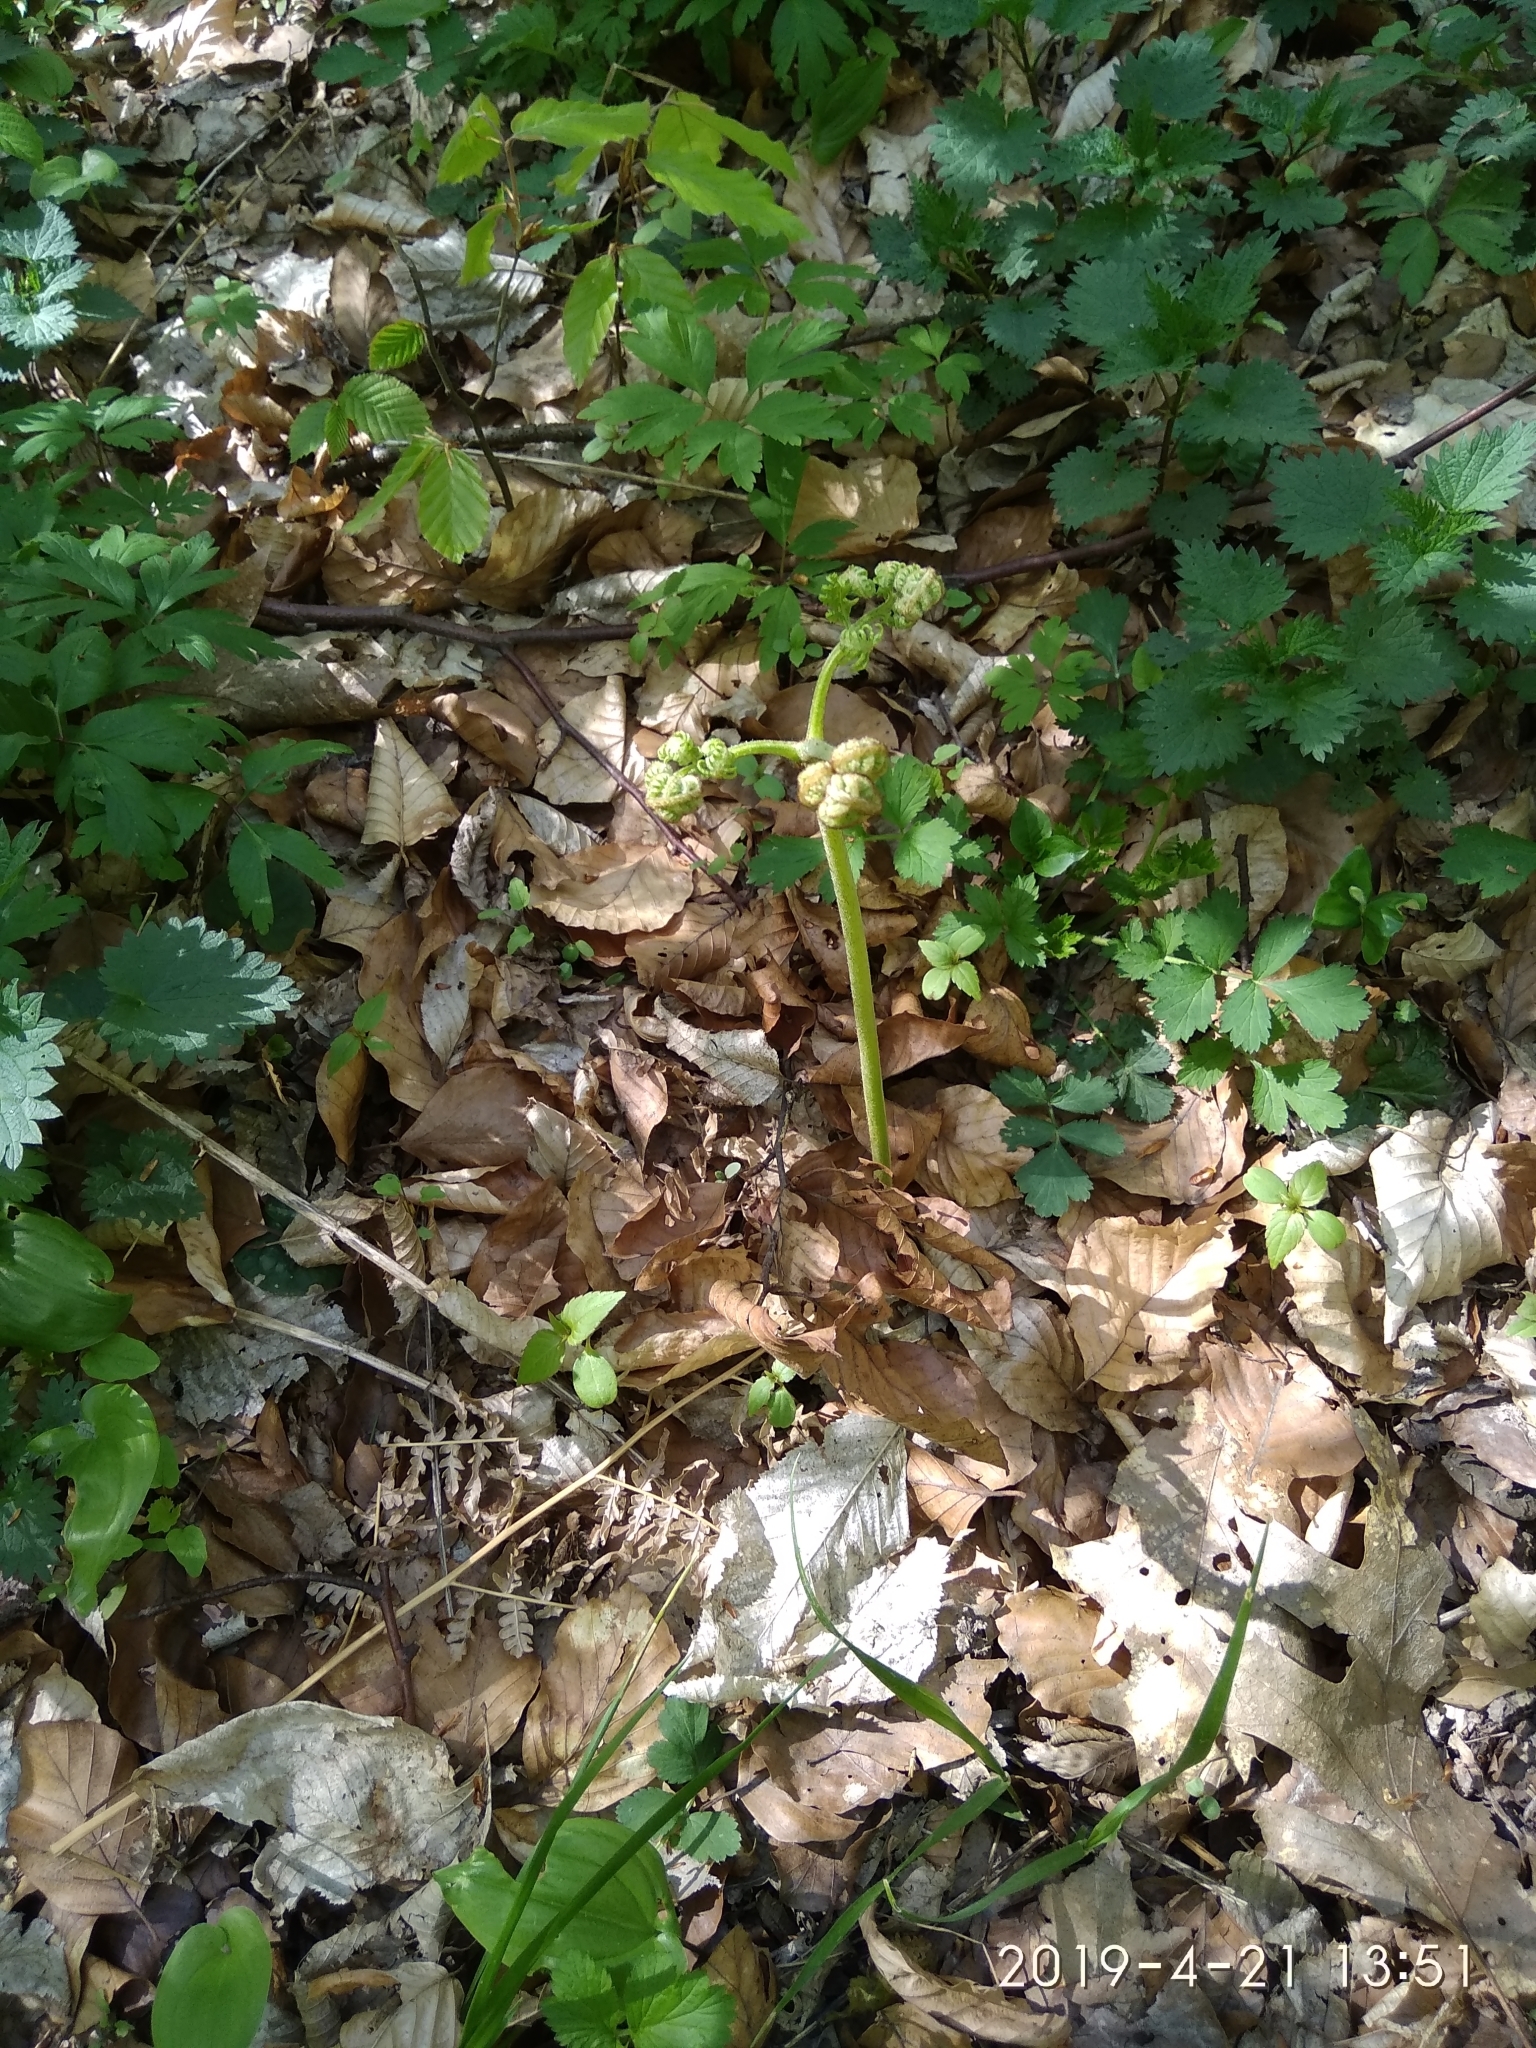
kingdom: Plantae
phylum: Tracheophyta
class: Polypodiopsida
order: Polypodiales
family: Dennstaedtiaceae
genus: Pteridium
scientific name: Pteridium aquilinum
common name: Bracken
